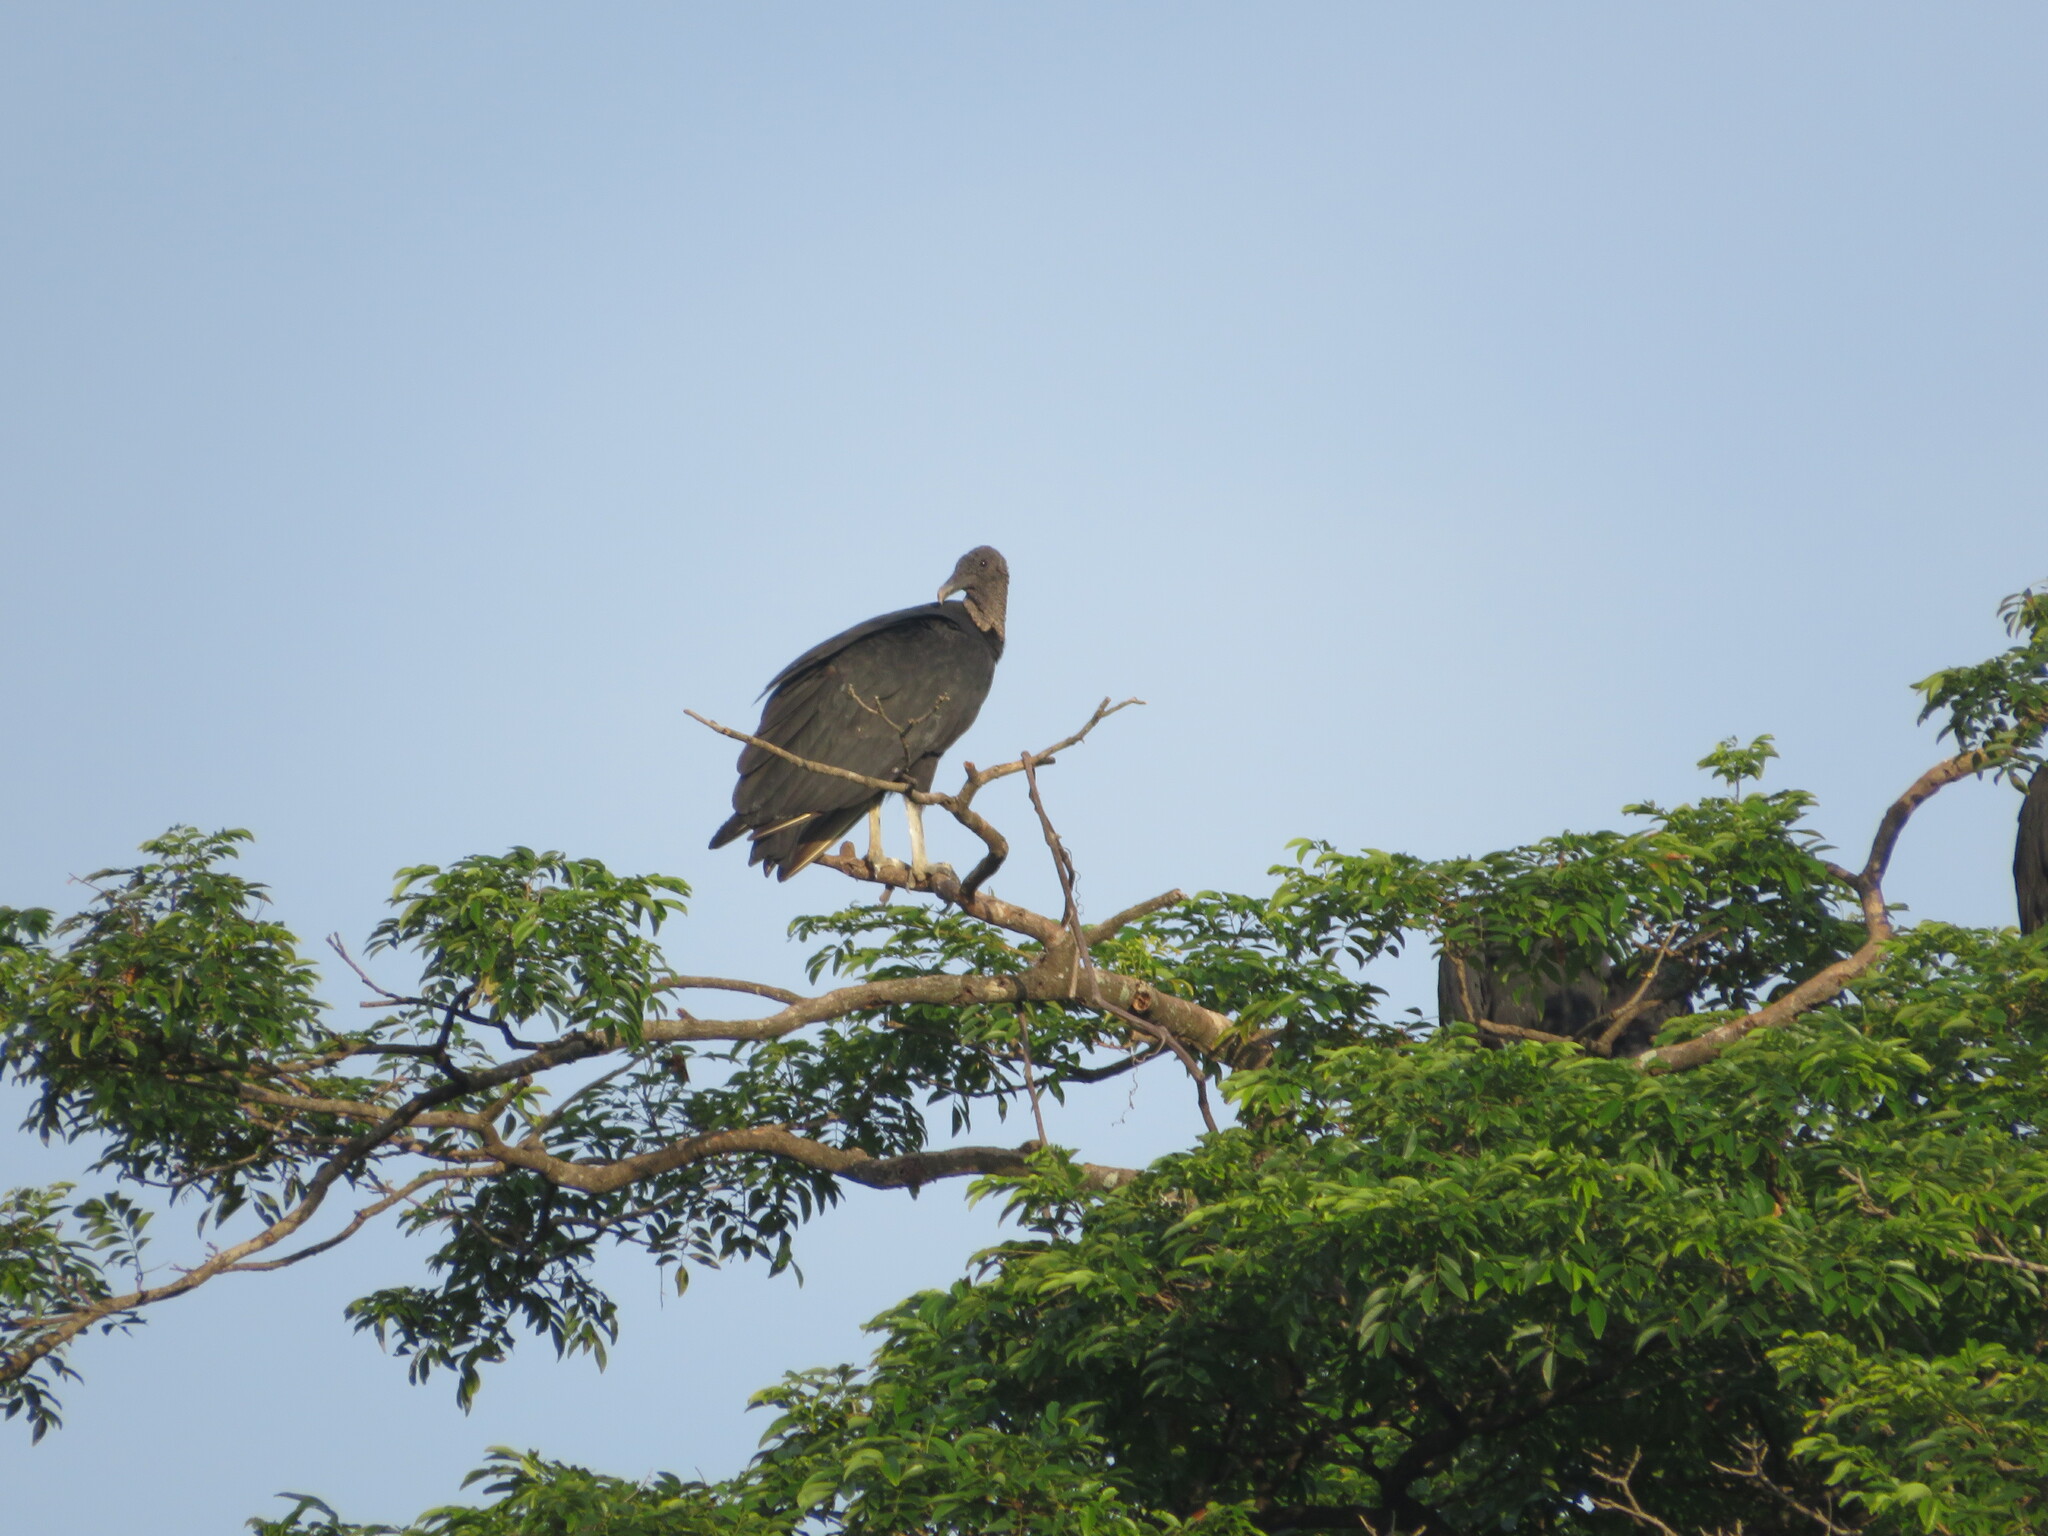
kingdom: Animalia
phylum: Chordata
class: Aves
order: Accipitriformes
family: Cathartidae
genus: Coragyps
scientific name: Coragyps atratus
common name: Black vulture
